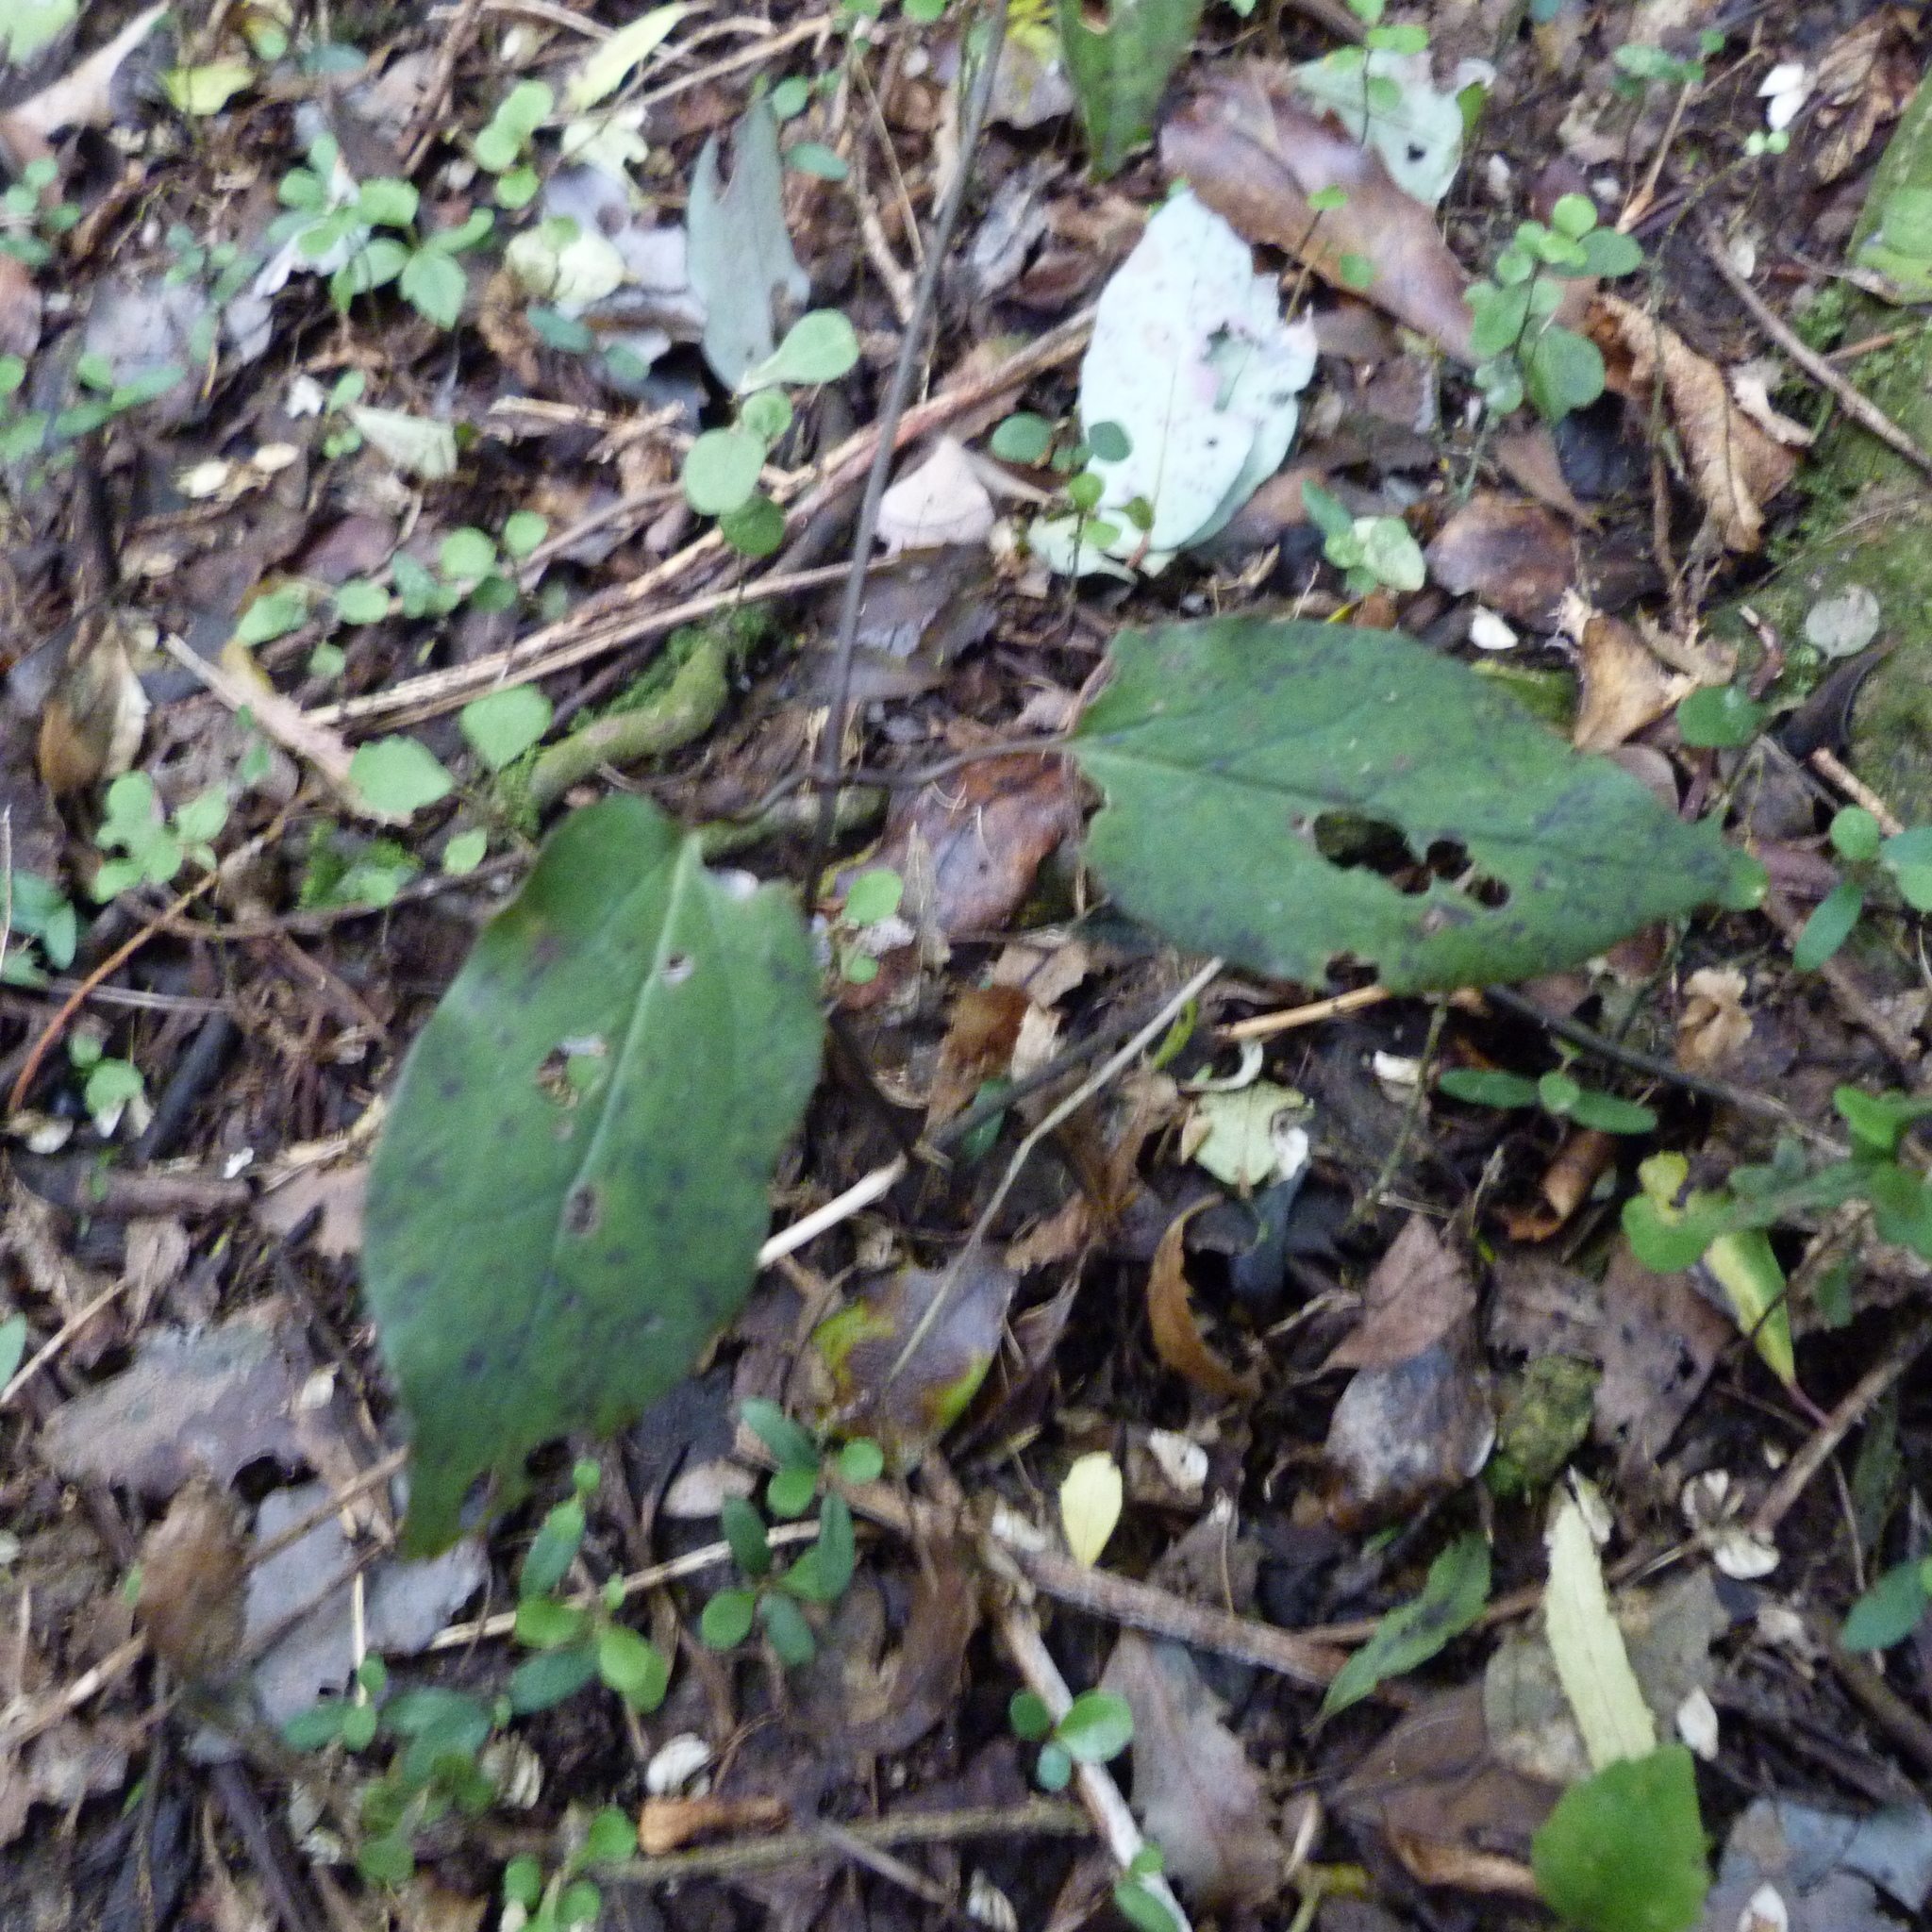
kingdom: Plantae
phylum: Tracheophyta
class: Magnoliopsida
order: Ranunculales
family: Ranunculaceae
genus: Clematis
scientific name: Clematis paniculata
